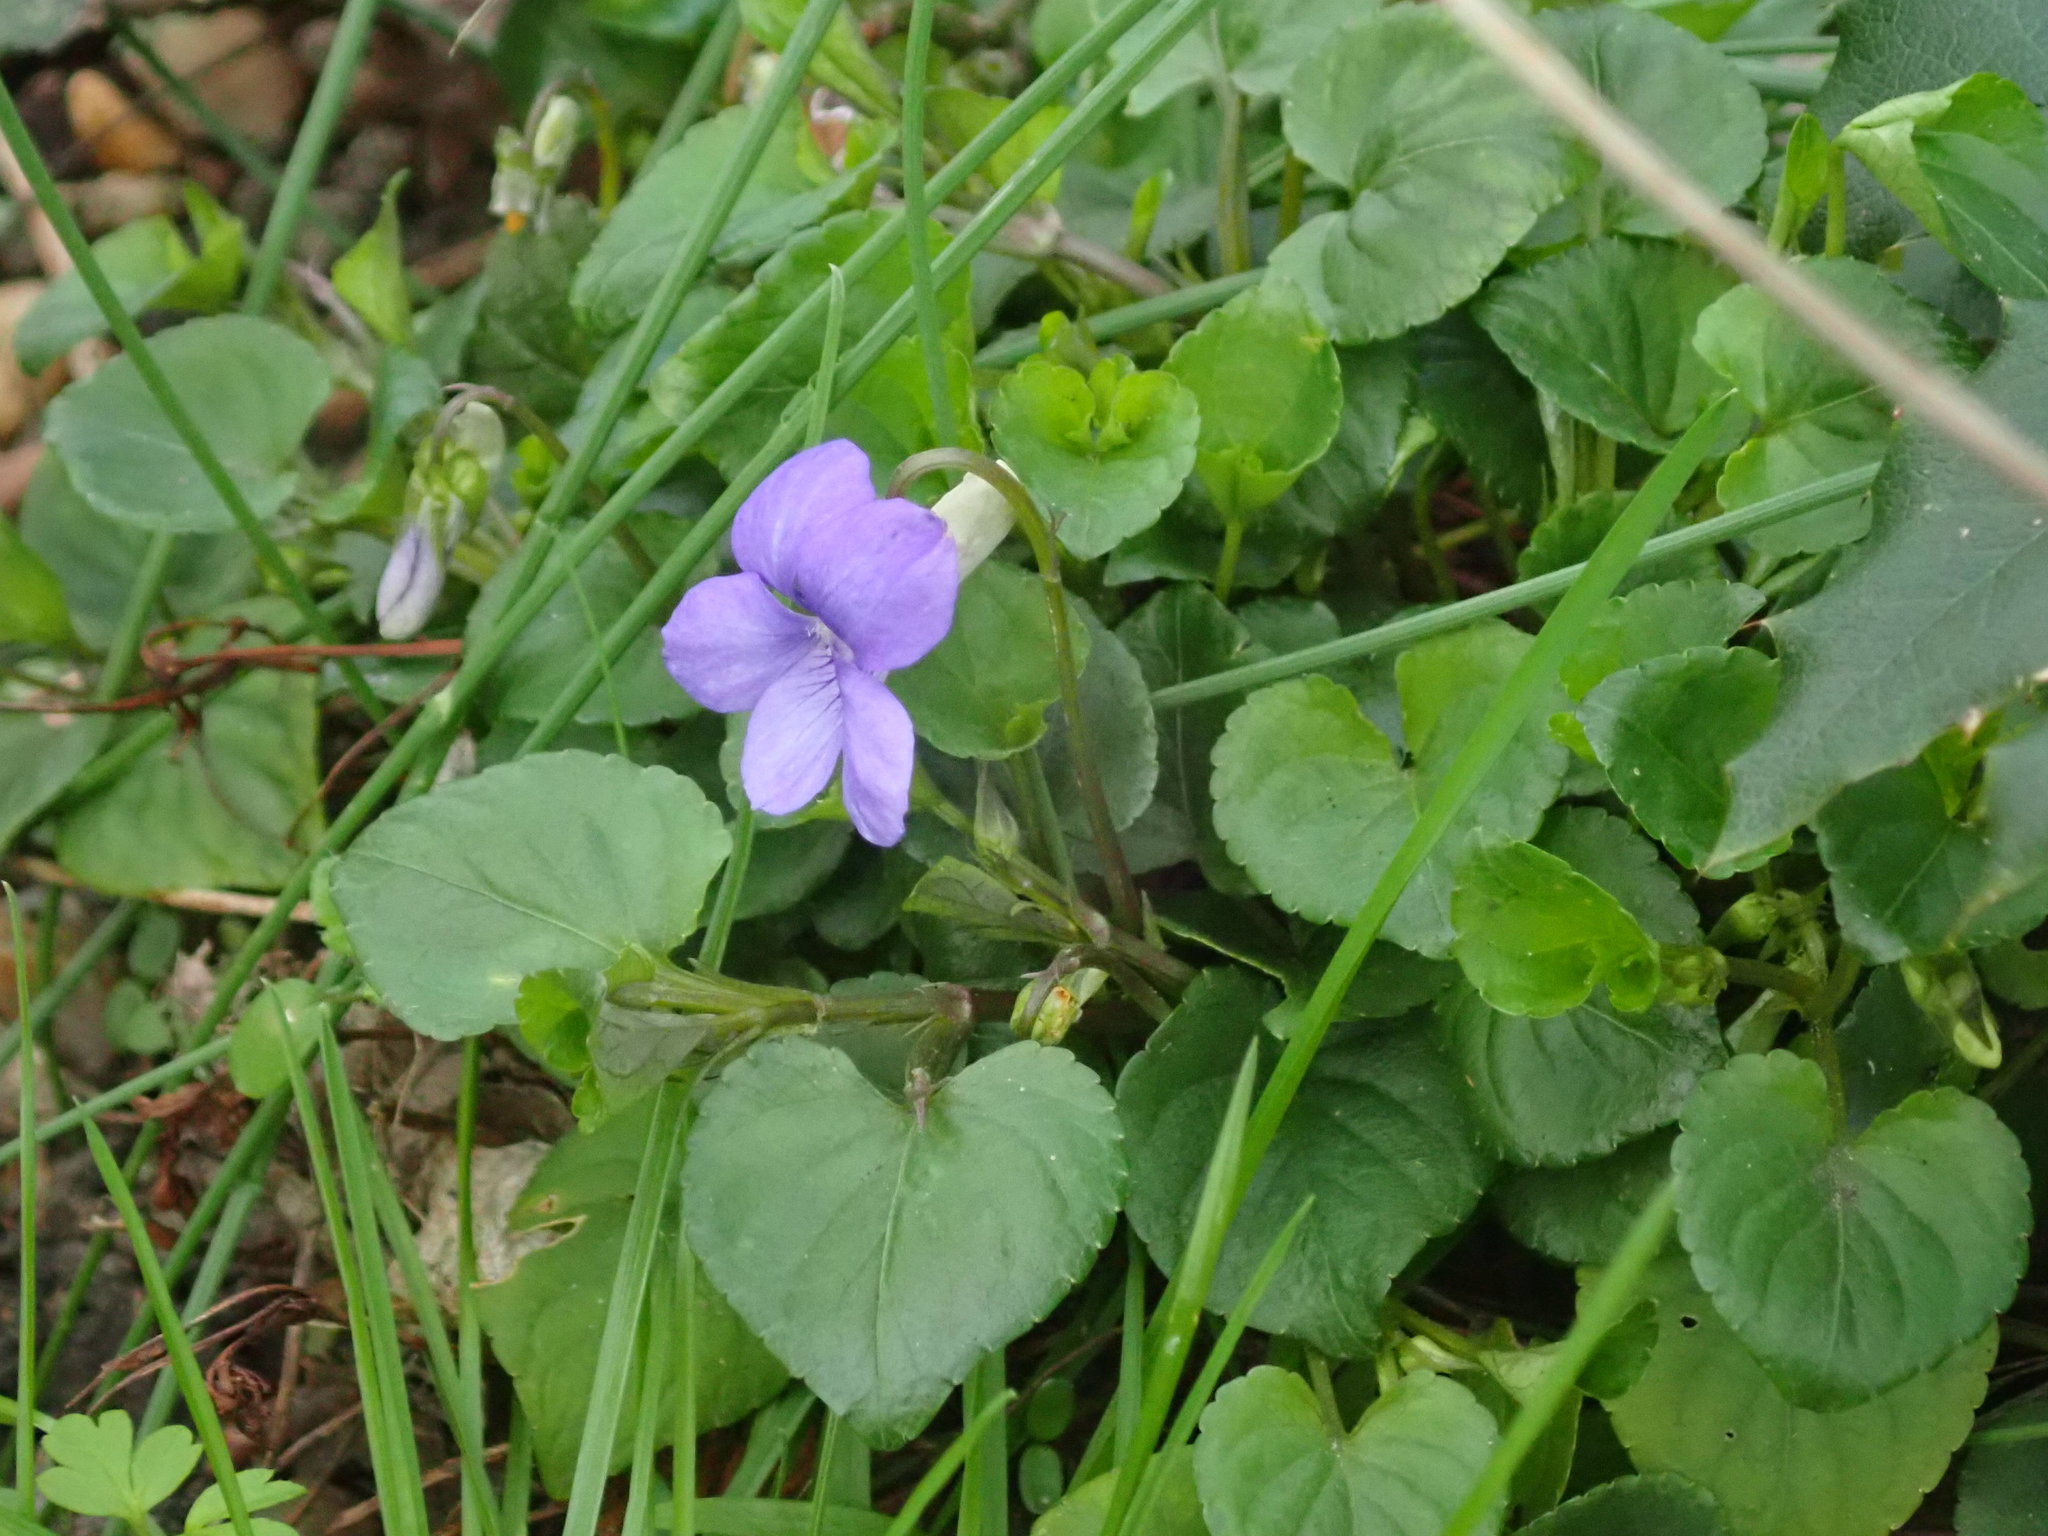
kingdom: Plantae
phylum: Tracheophyta
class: Magnoliopsida
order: Malpighiales
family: Violaceae
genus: Viola
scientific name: Viola riviniana
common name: Common dog-violet
